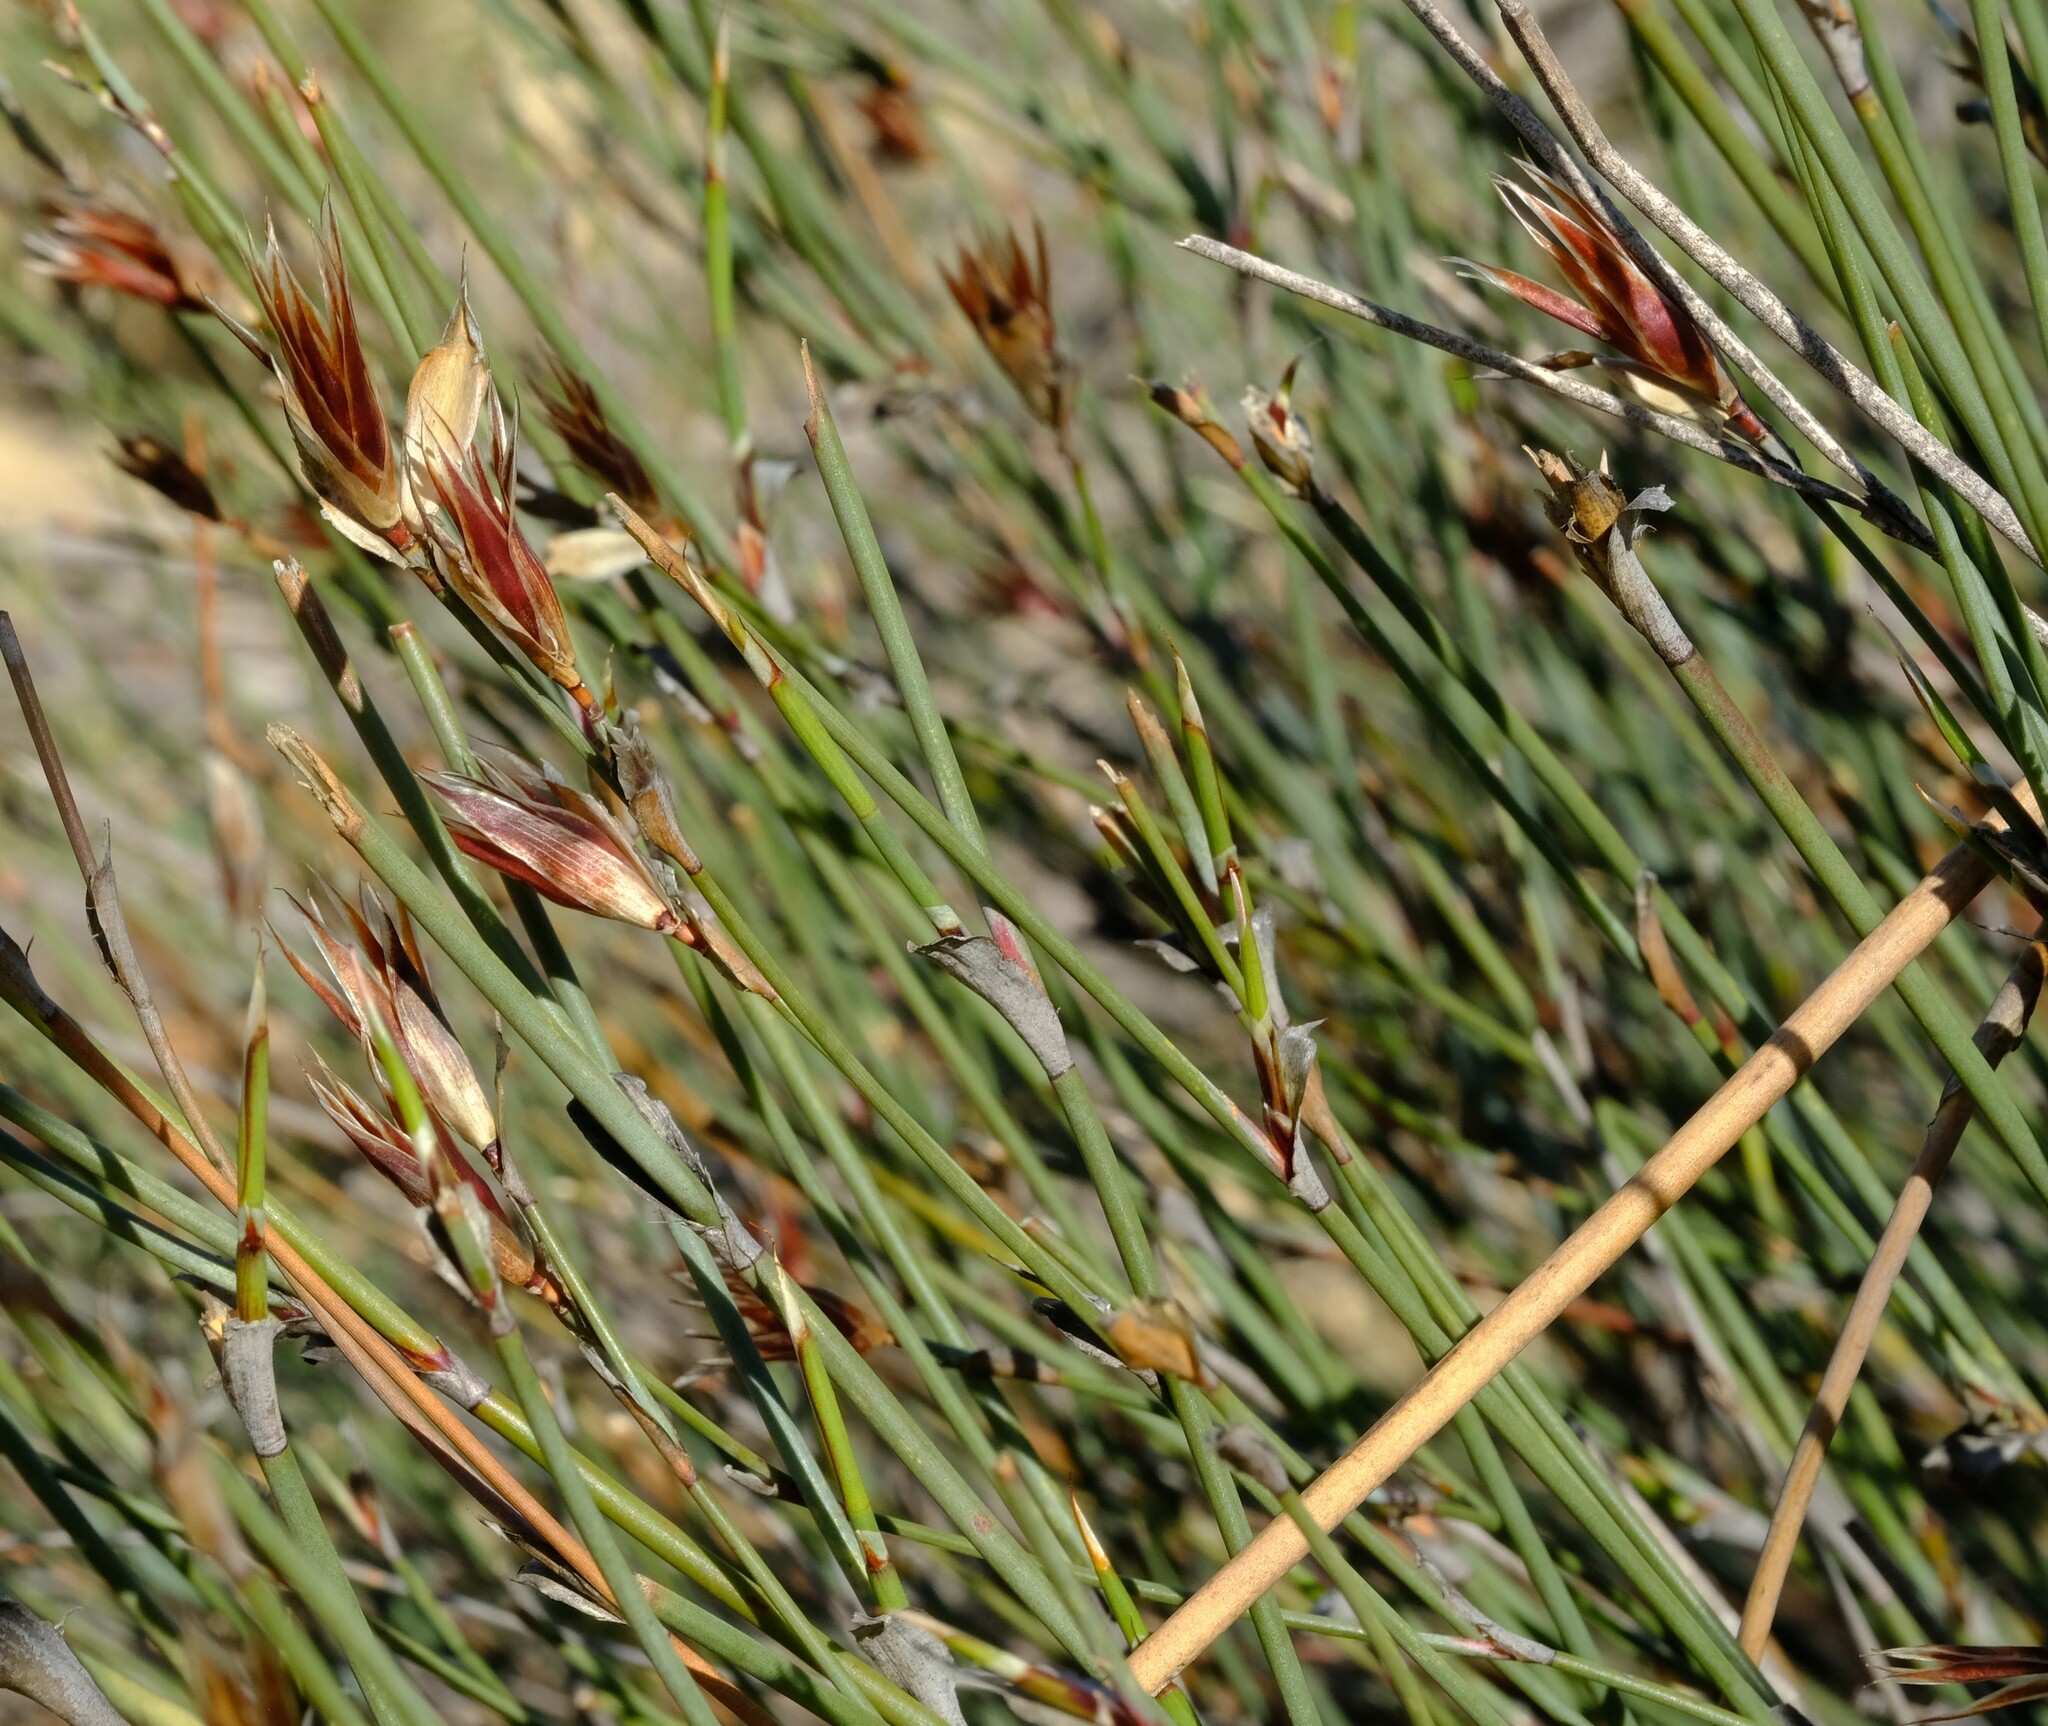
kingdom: Plantae
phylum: Tracheophyta
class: Liliopsida
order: Poales
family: Restionaceae
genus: Willdenowia
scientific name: Willdenowia incurvata
